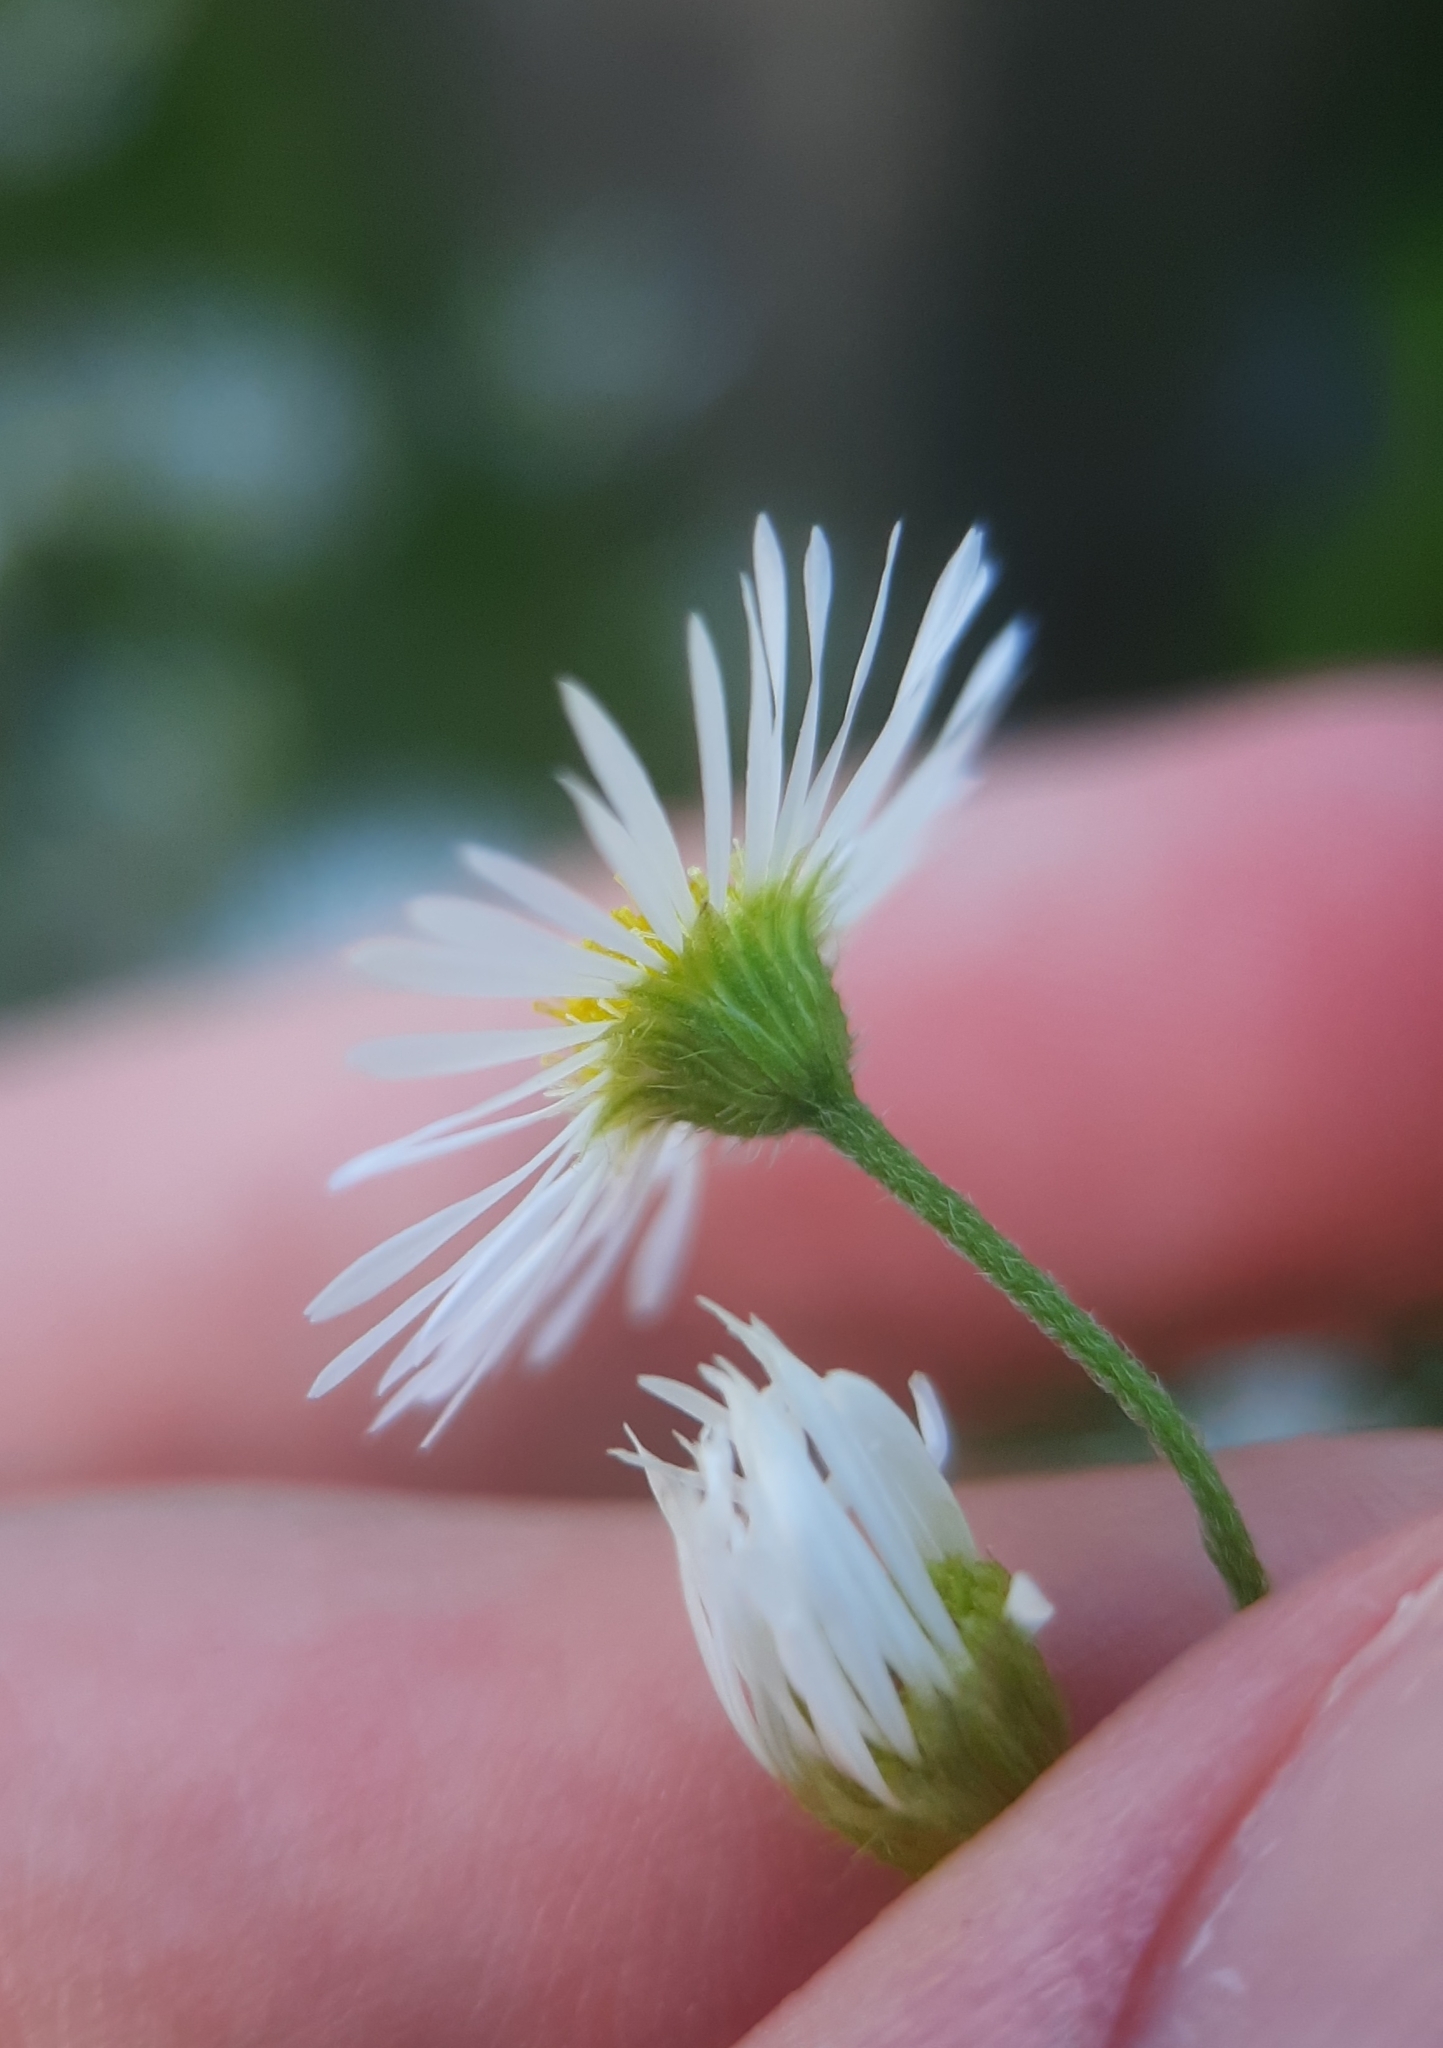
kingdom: Plantae
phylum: Tracheophyta
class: Magnoliopsida
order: Asterales
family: Asteraceae
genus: Erigeron
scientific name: Erigeron strigosus
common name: Common eastern fleabane
